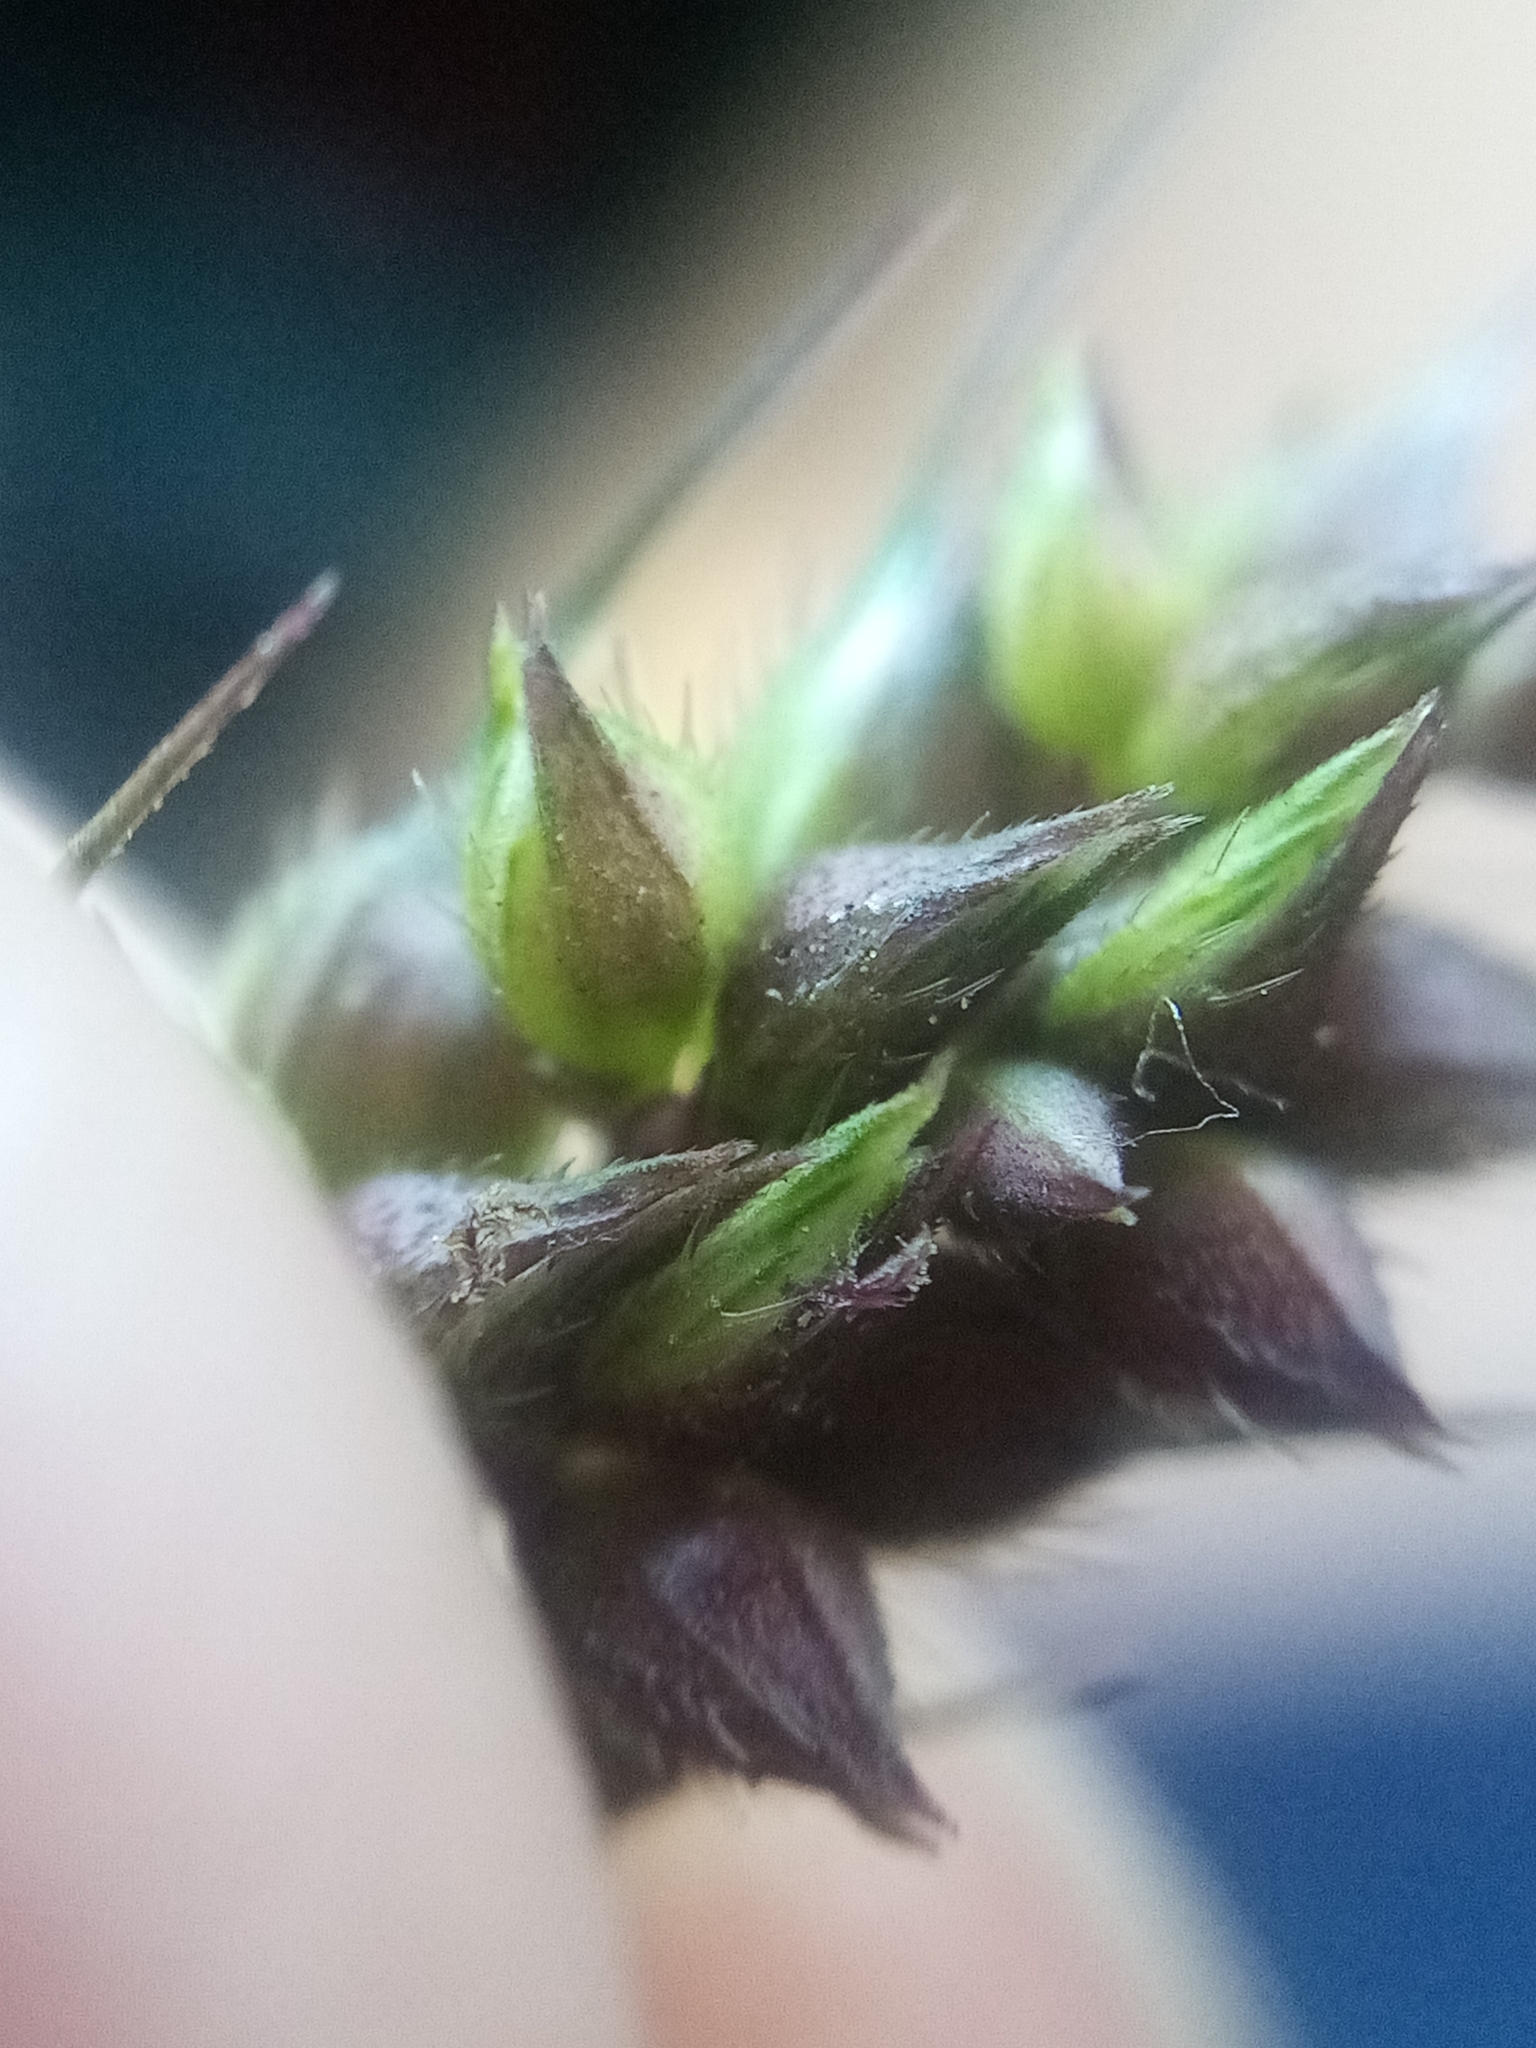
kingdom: Plantae
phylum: Tracheophyta
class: Liliopsida
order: Poales
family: Poaceae
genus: Echinochloa
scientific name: Echinochloa crus-galli
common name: Cockspur
